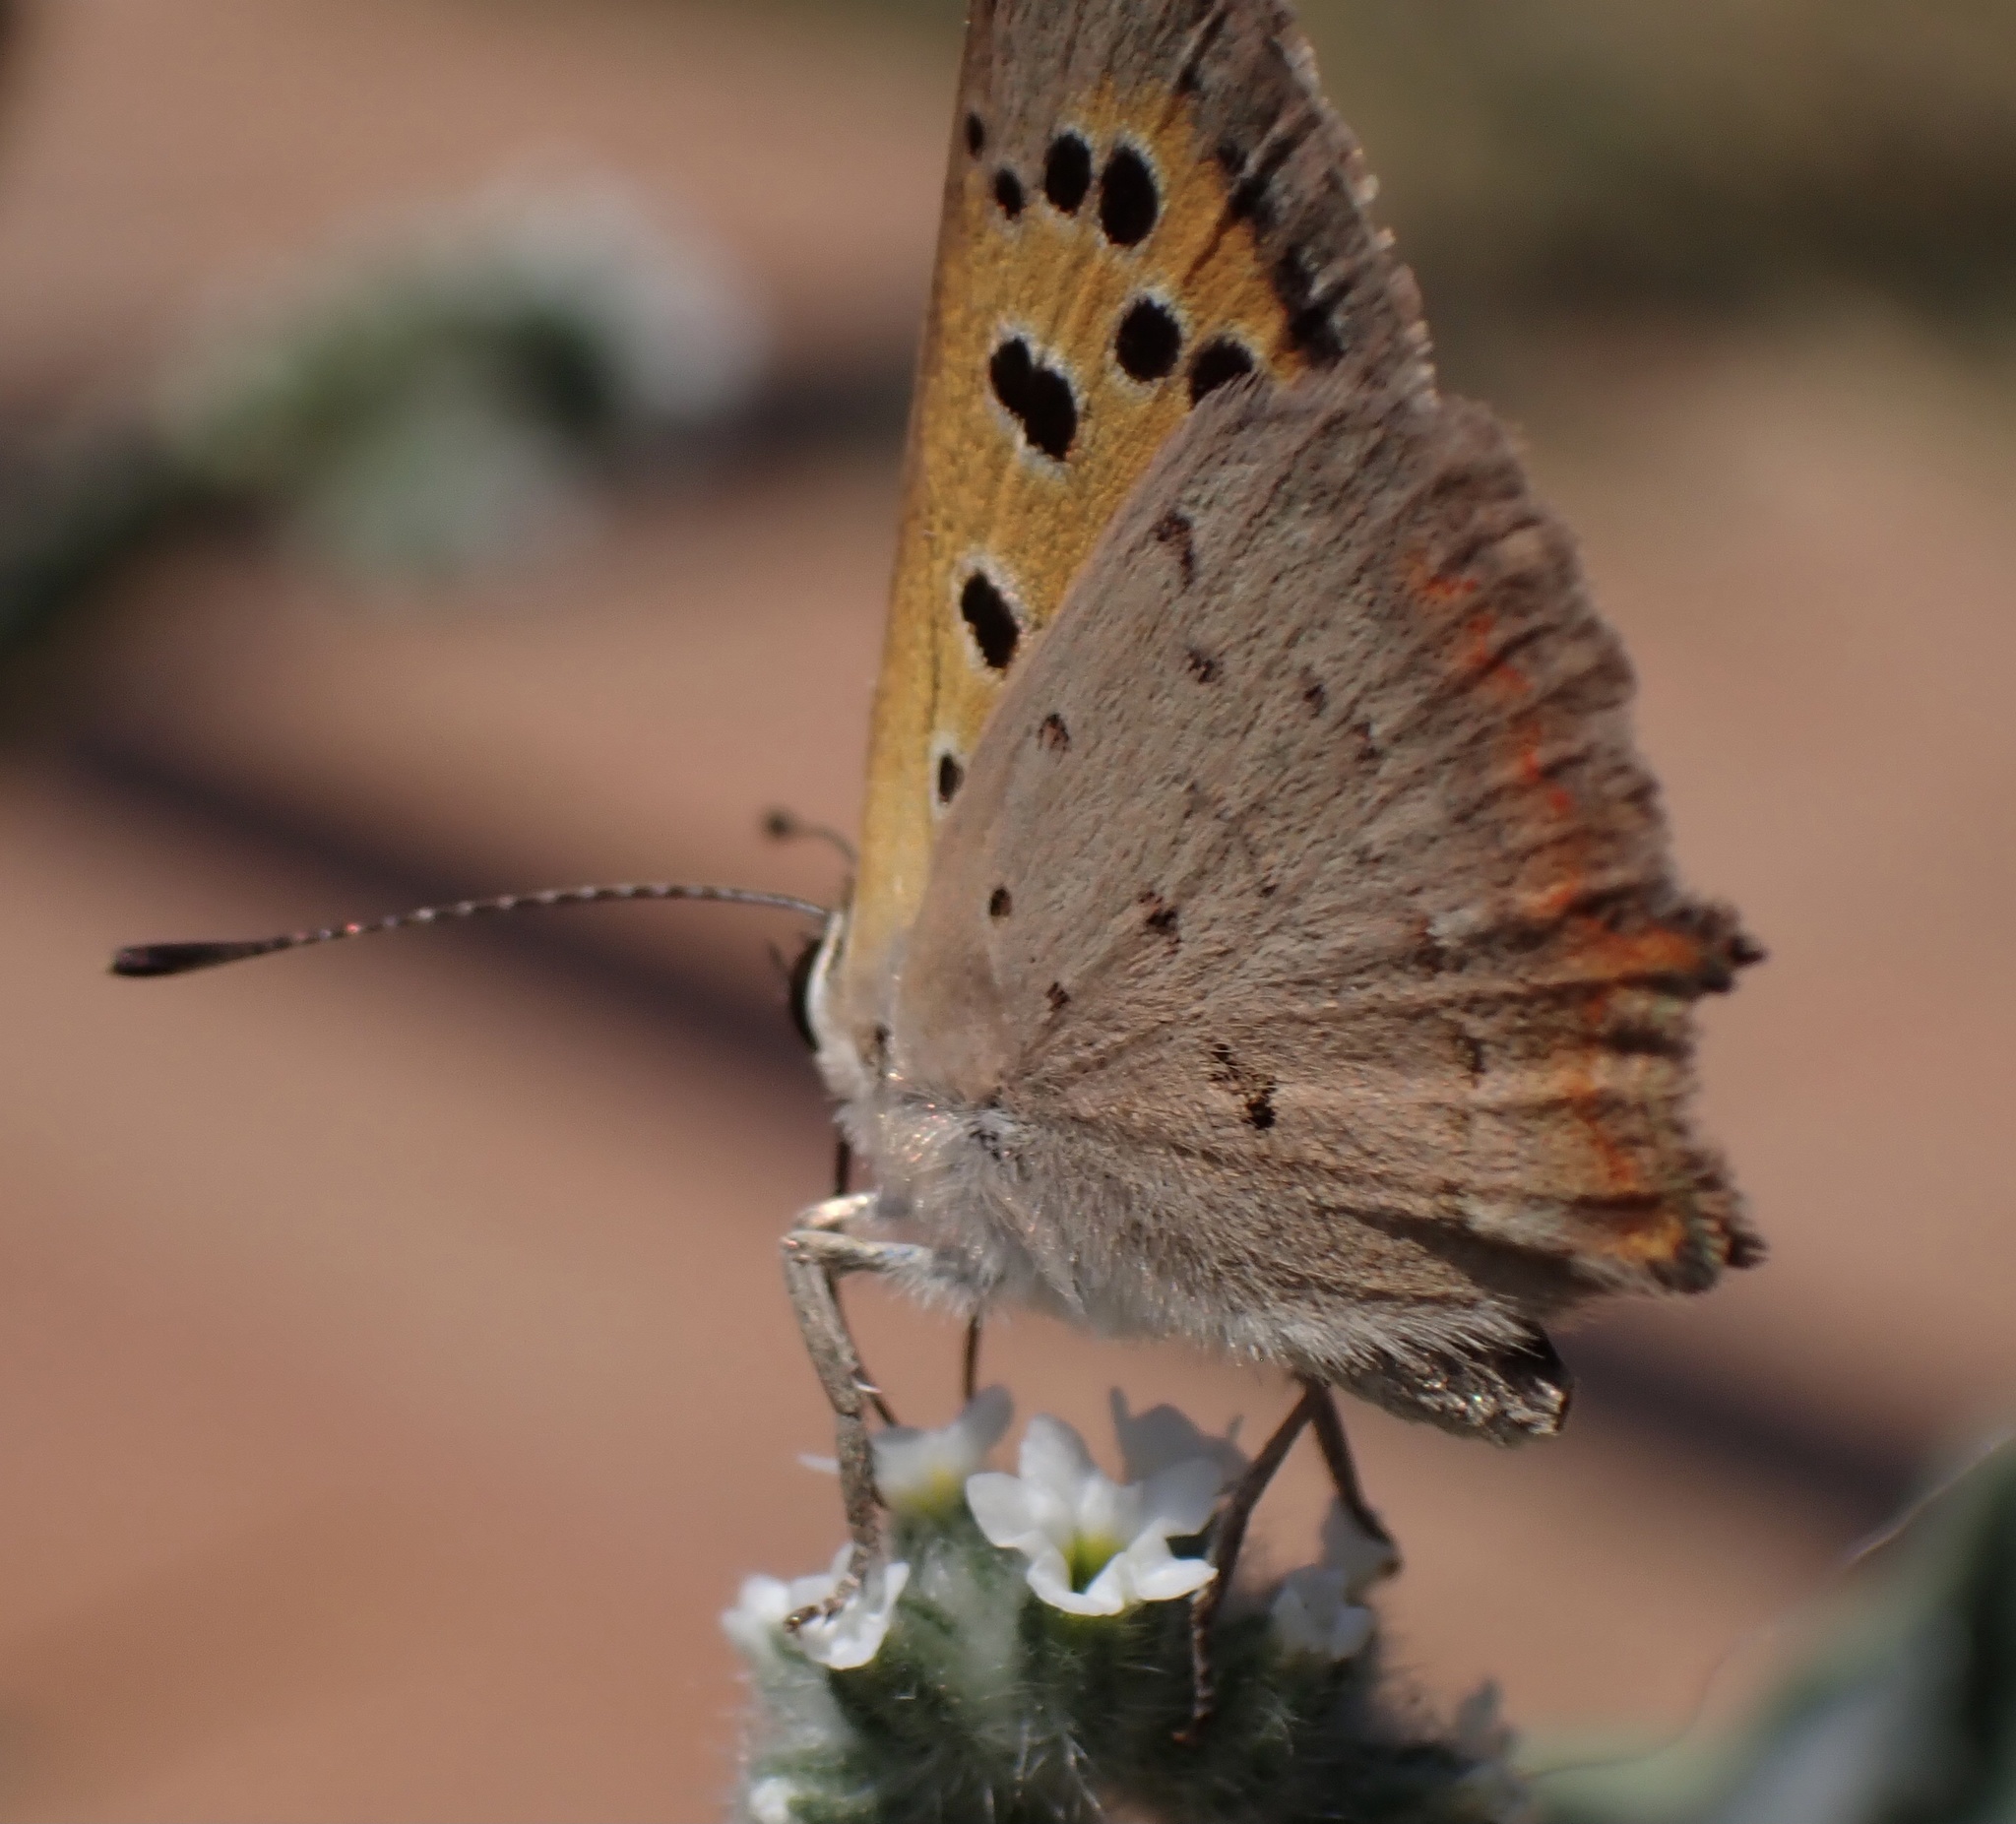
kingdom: Animalia
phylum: Arthropoda
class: Insecta
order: Lepidoptera
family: Lycaenidae
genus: Lycaena
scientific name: Lycaena phlaeas
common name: Small copper
